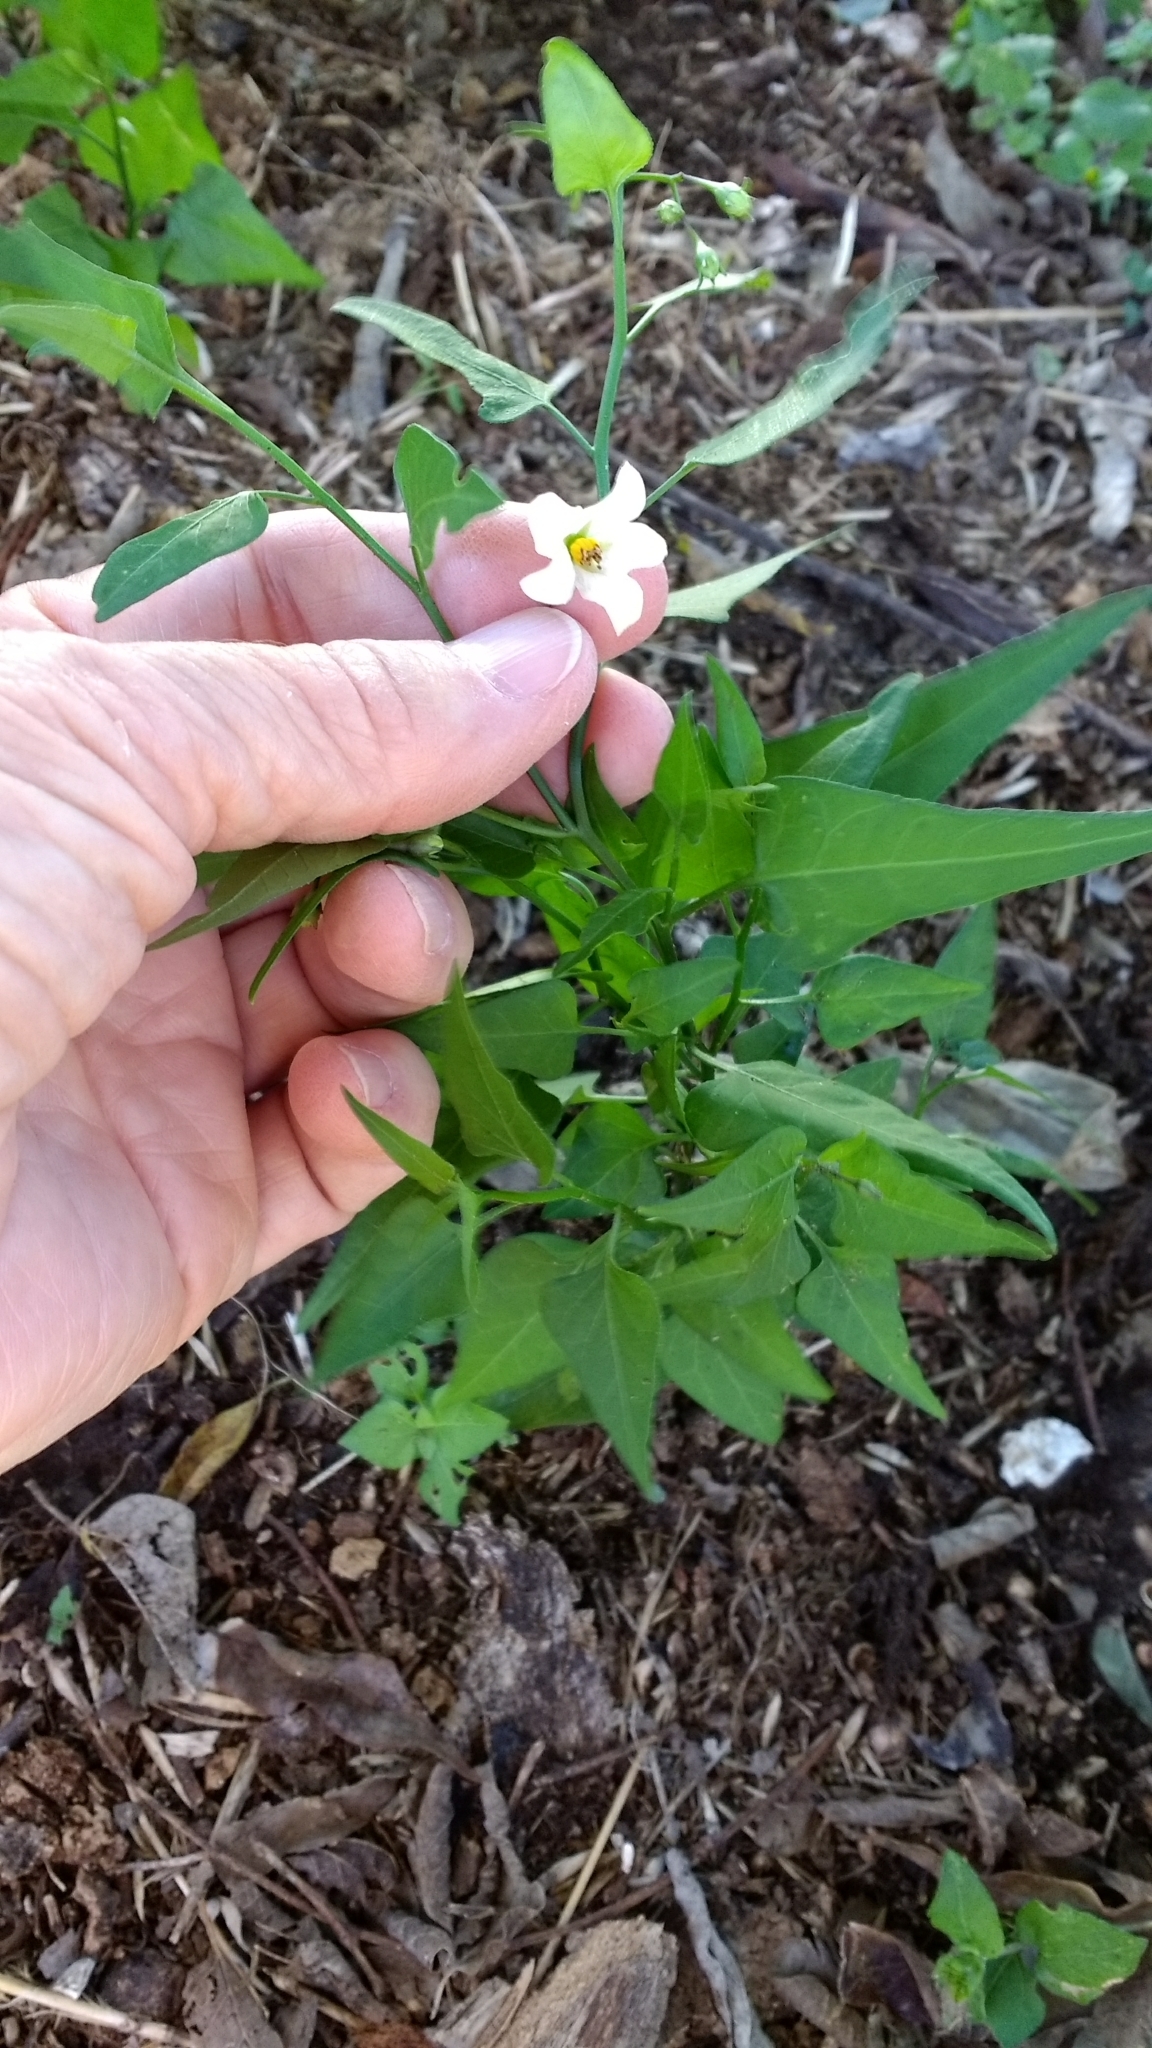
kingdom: Plantae
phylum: Tracheophyta
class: Magnoliopsida
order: Solanales
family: Solanaceae
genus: Solanum
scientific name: Solanum triquetrum
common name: Texas nightshade
